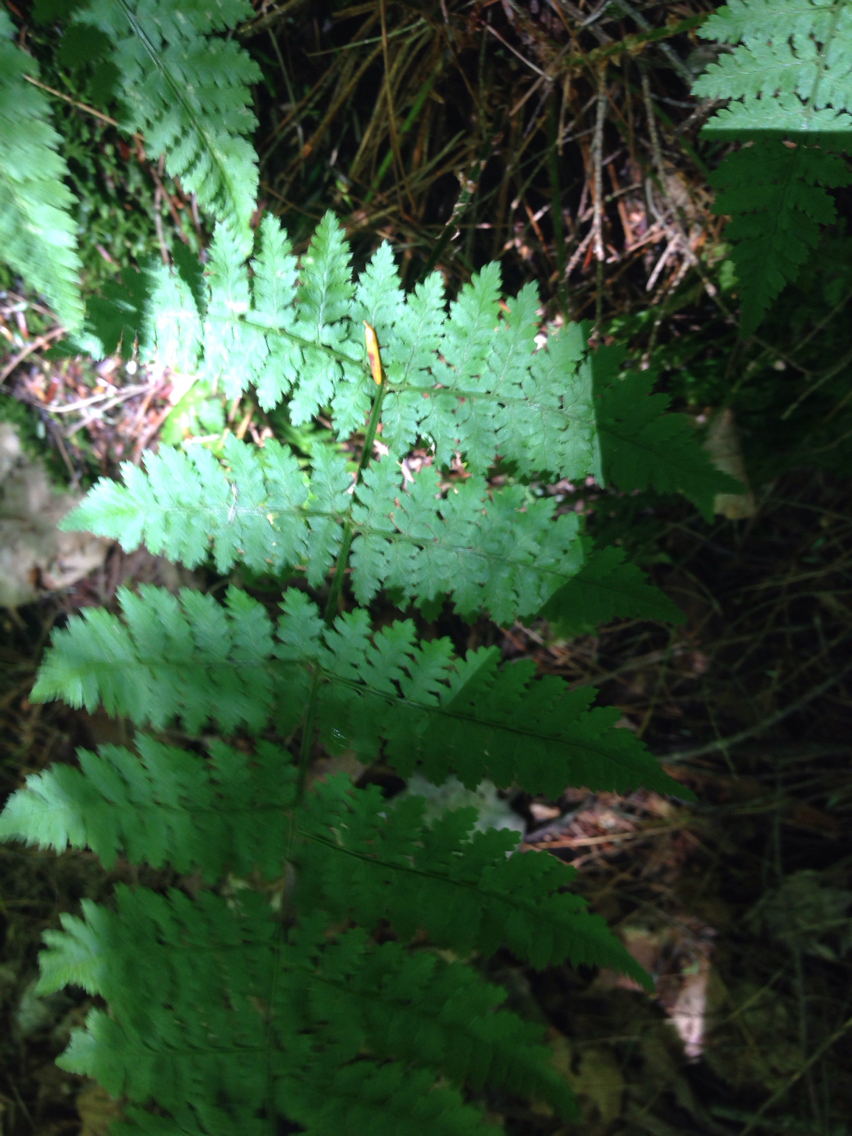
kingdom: Plantae
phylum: Tracheophyta
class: Polypodiopsida
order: Polypodiales
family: Dryopteridaceae
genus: Dryopteris
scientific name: Dryopteris intermedia
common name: Evergreen wood fern
